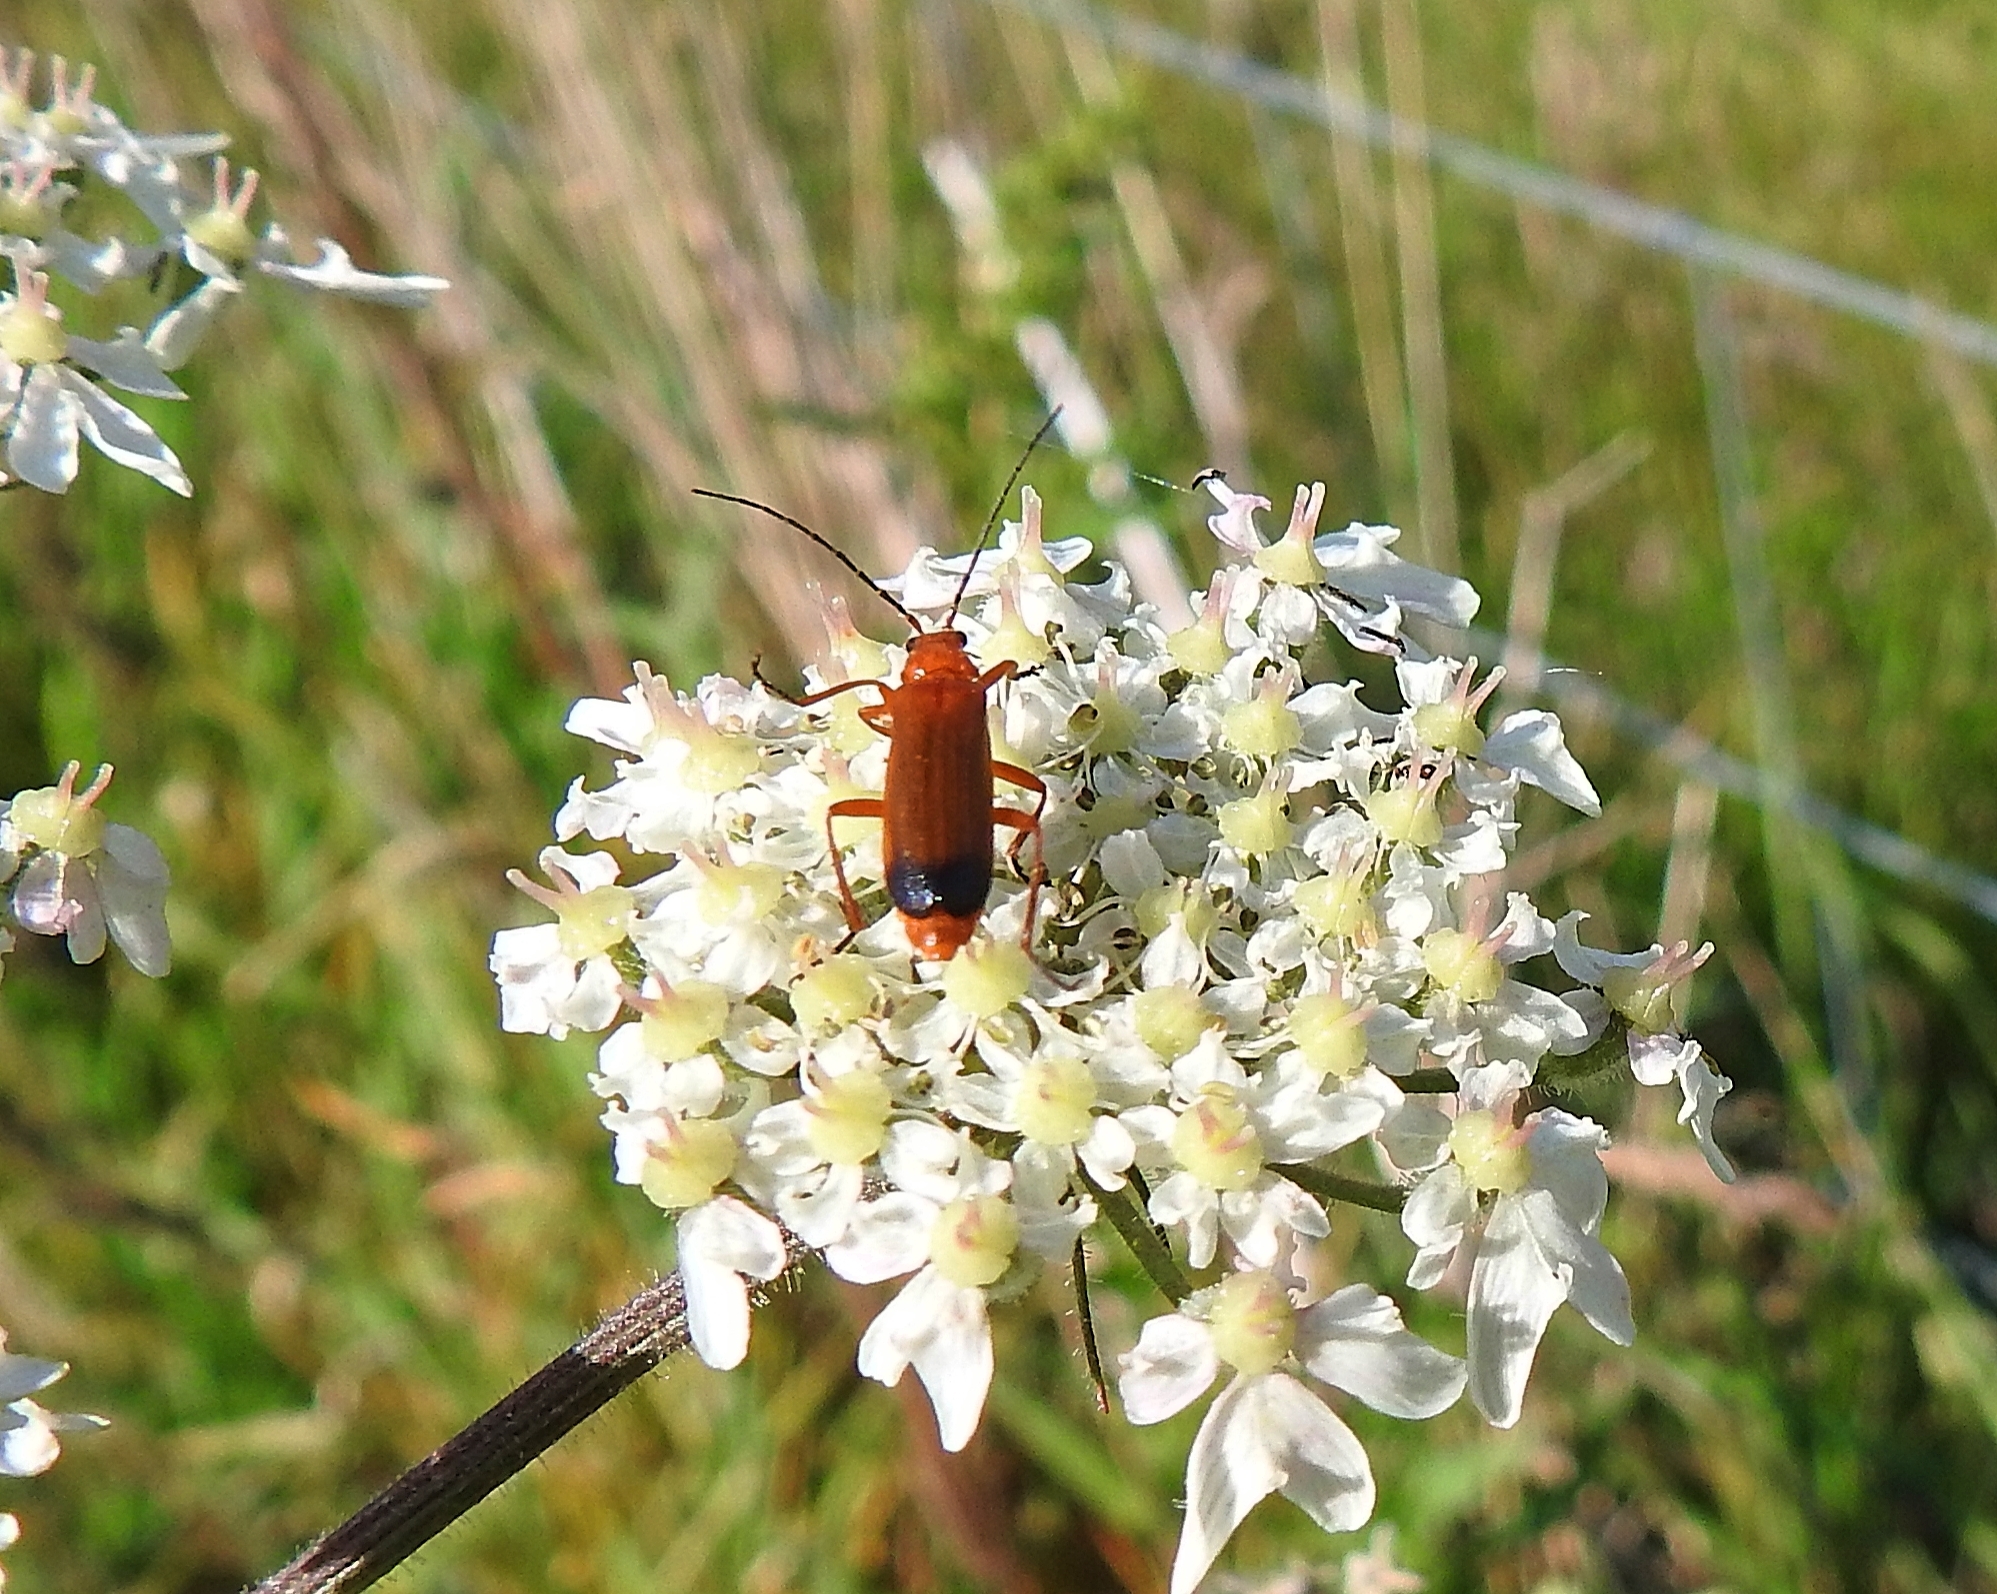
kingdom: Animalia
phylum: Arthropoda
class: Insecta
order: Coleoptera
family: Cantharidae
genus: Rhagonycha
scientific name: Rhagonycha fulva
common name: Common red soldier beetle
